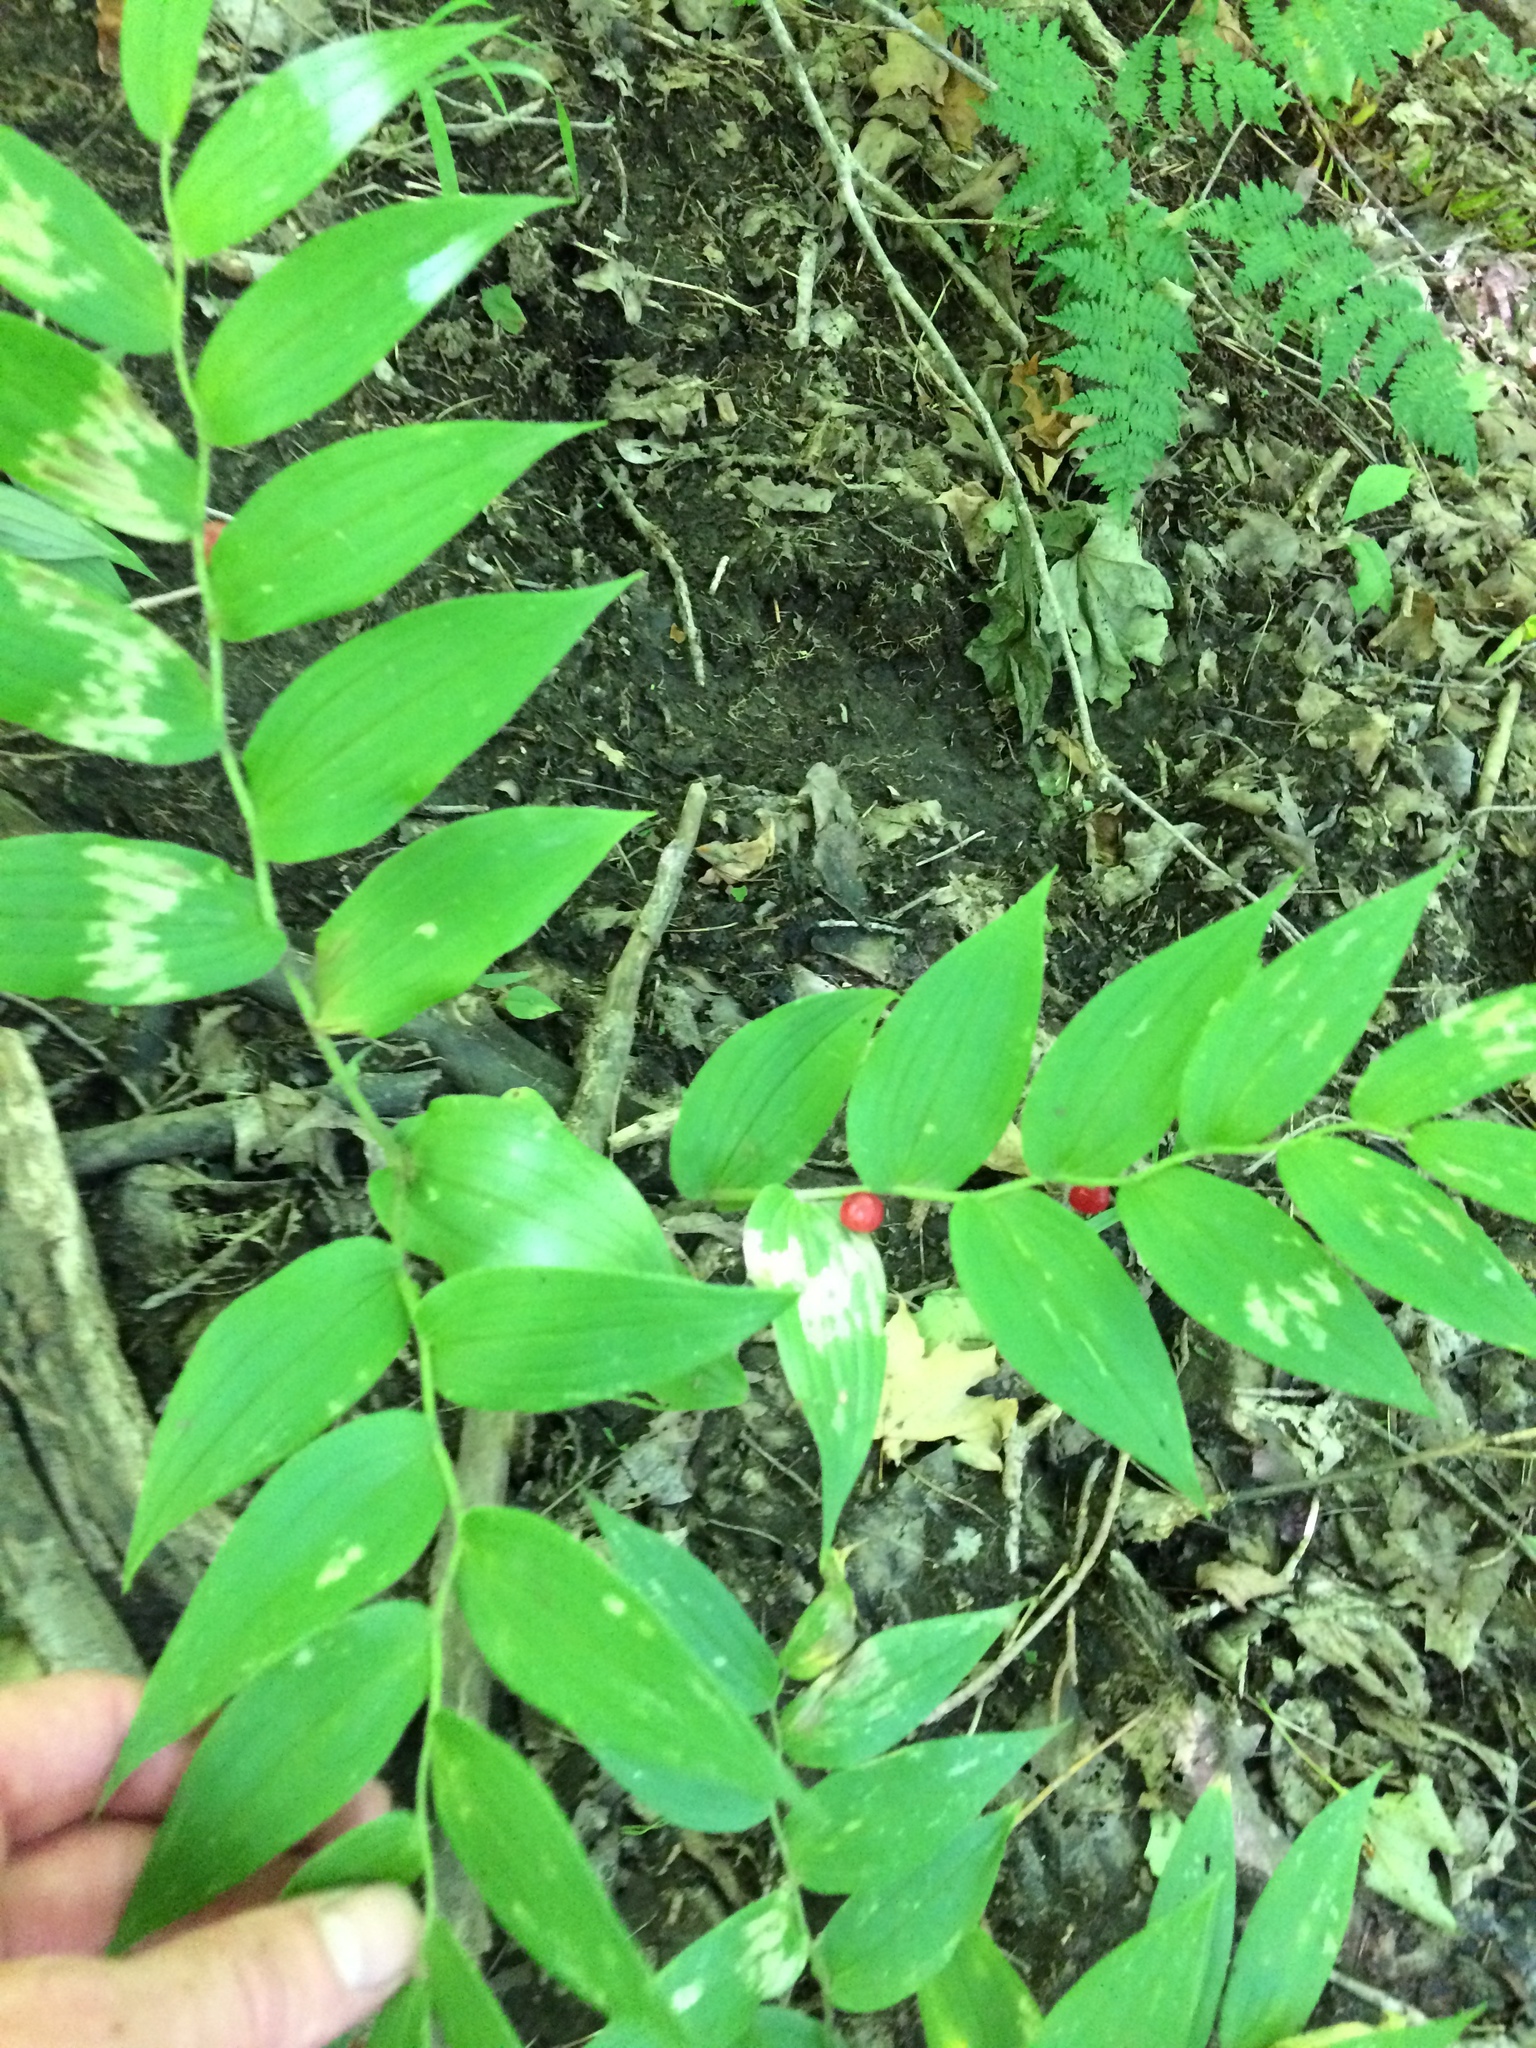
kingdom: Plantae
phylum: Tracheophyta
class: Liliopsida
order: Liliales
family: Liliaceae
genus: Streptopus
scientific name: Streptopus lanceolatus
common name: Rose mandarin
